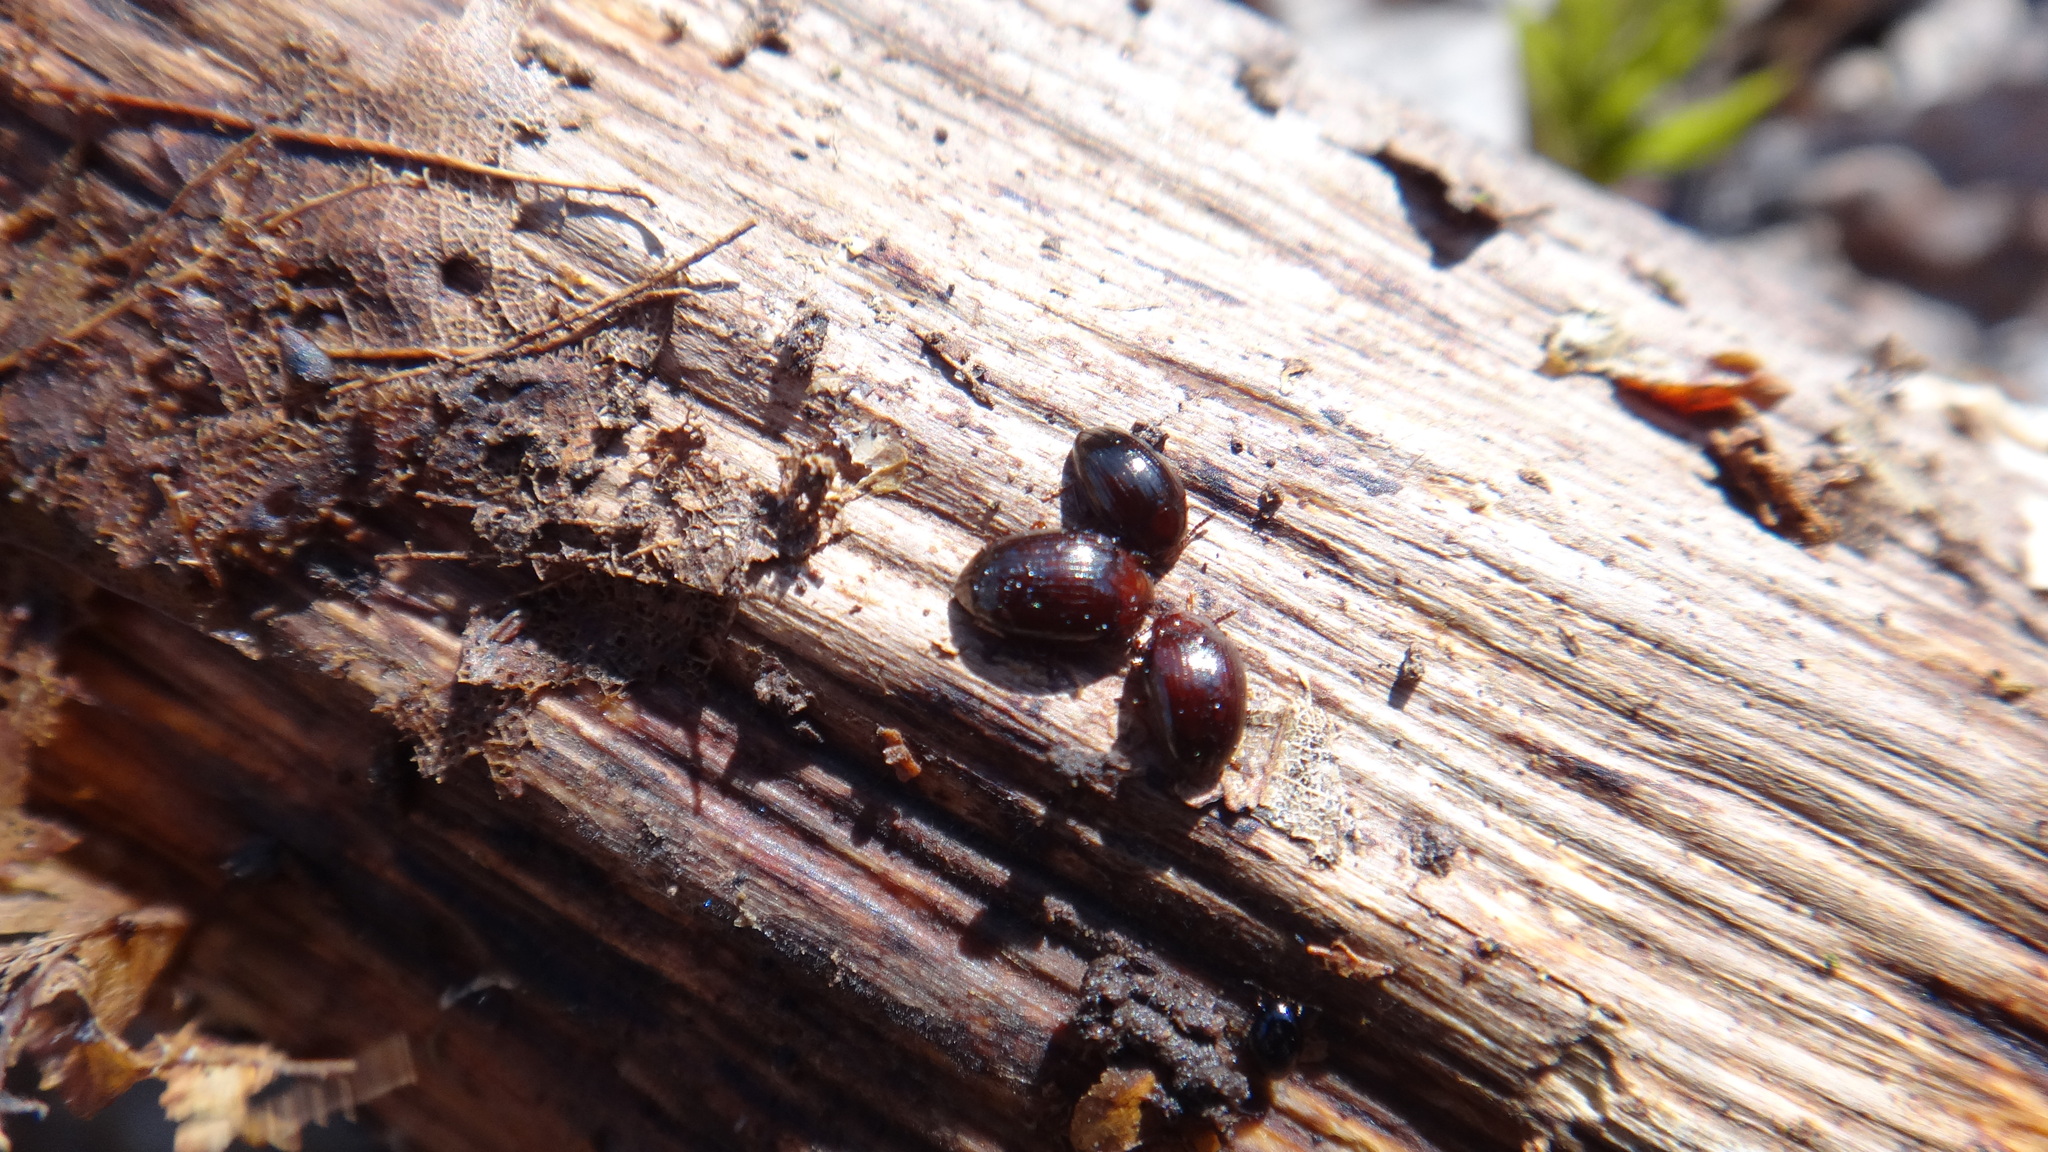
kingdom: Animalia
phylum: Arthropoda
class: Insecta
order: Coleoptera
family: Tenebrionidae
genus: Blapstinus
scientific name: Blapstinus metallicus
